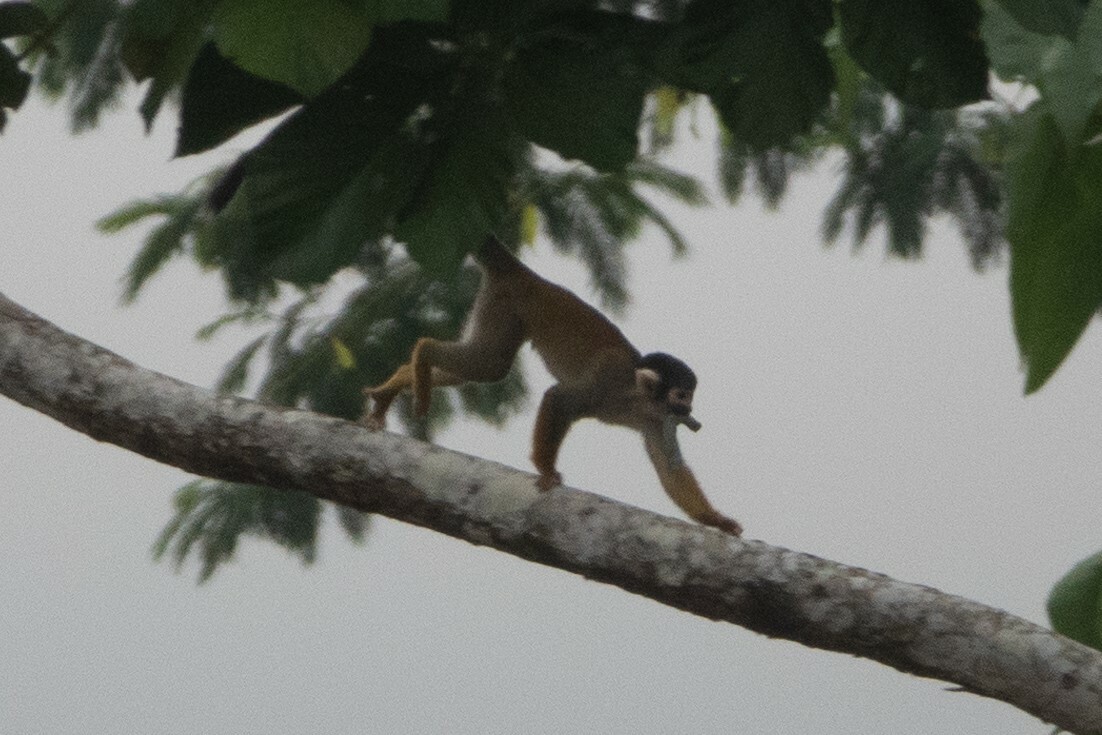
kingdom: Animalia
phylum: Chordata
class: Mammalia
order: Primates
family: Cebidae
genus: Saimiri
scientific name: Saimiri boliviensis
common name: Black-capped squirrel monkey
